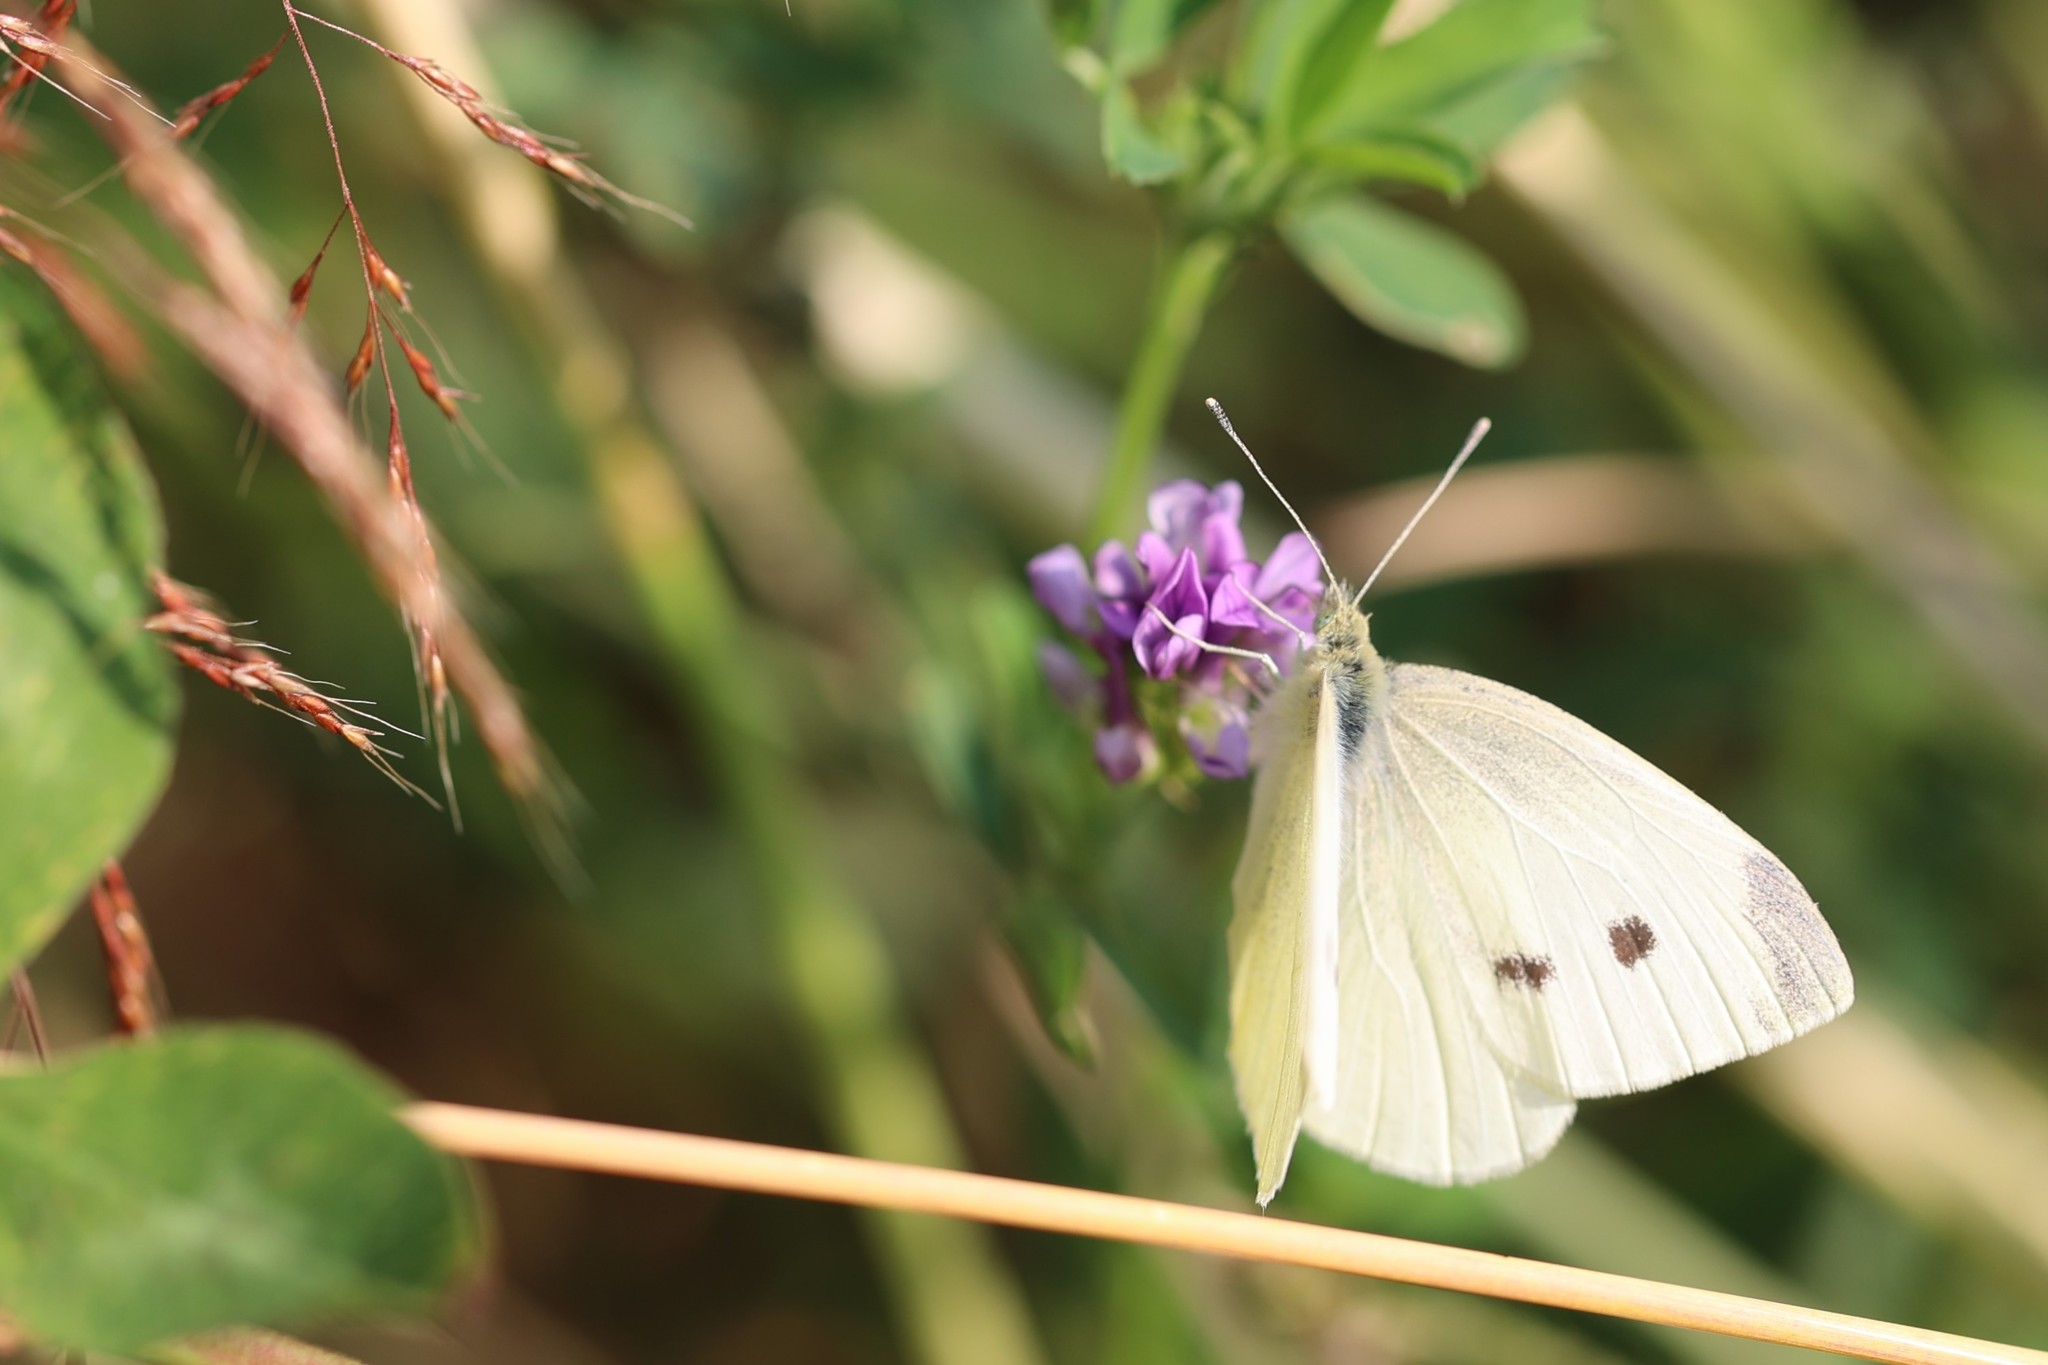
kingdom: Animalia
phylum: Arthropoda
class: Insecta
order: Lepidoptera
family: Pieridae
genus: Pieris
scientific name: Pieris rapae
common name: Small white
